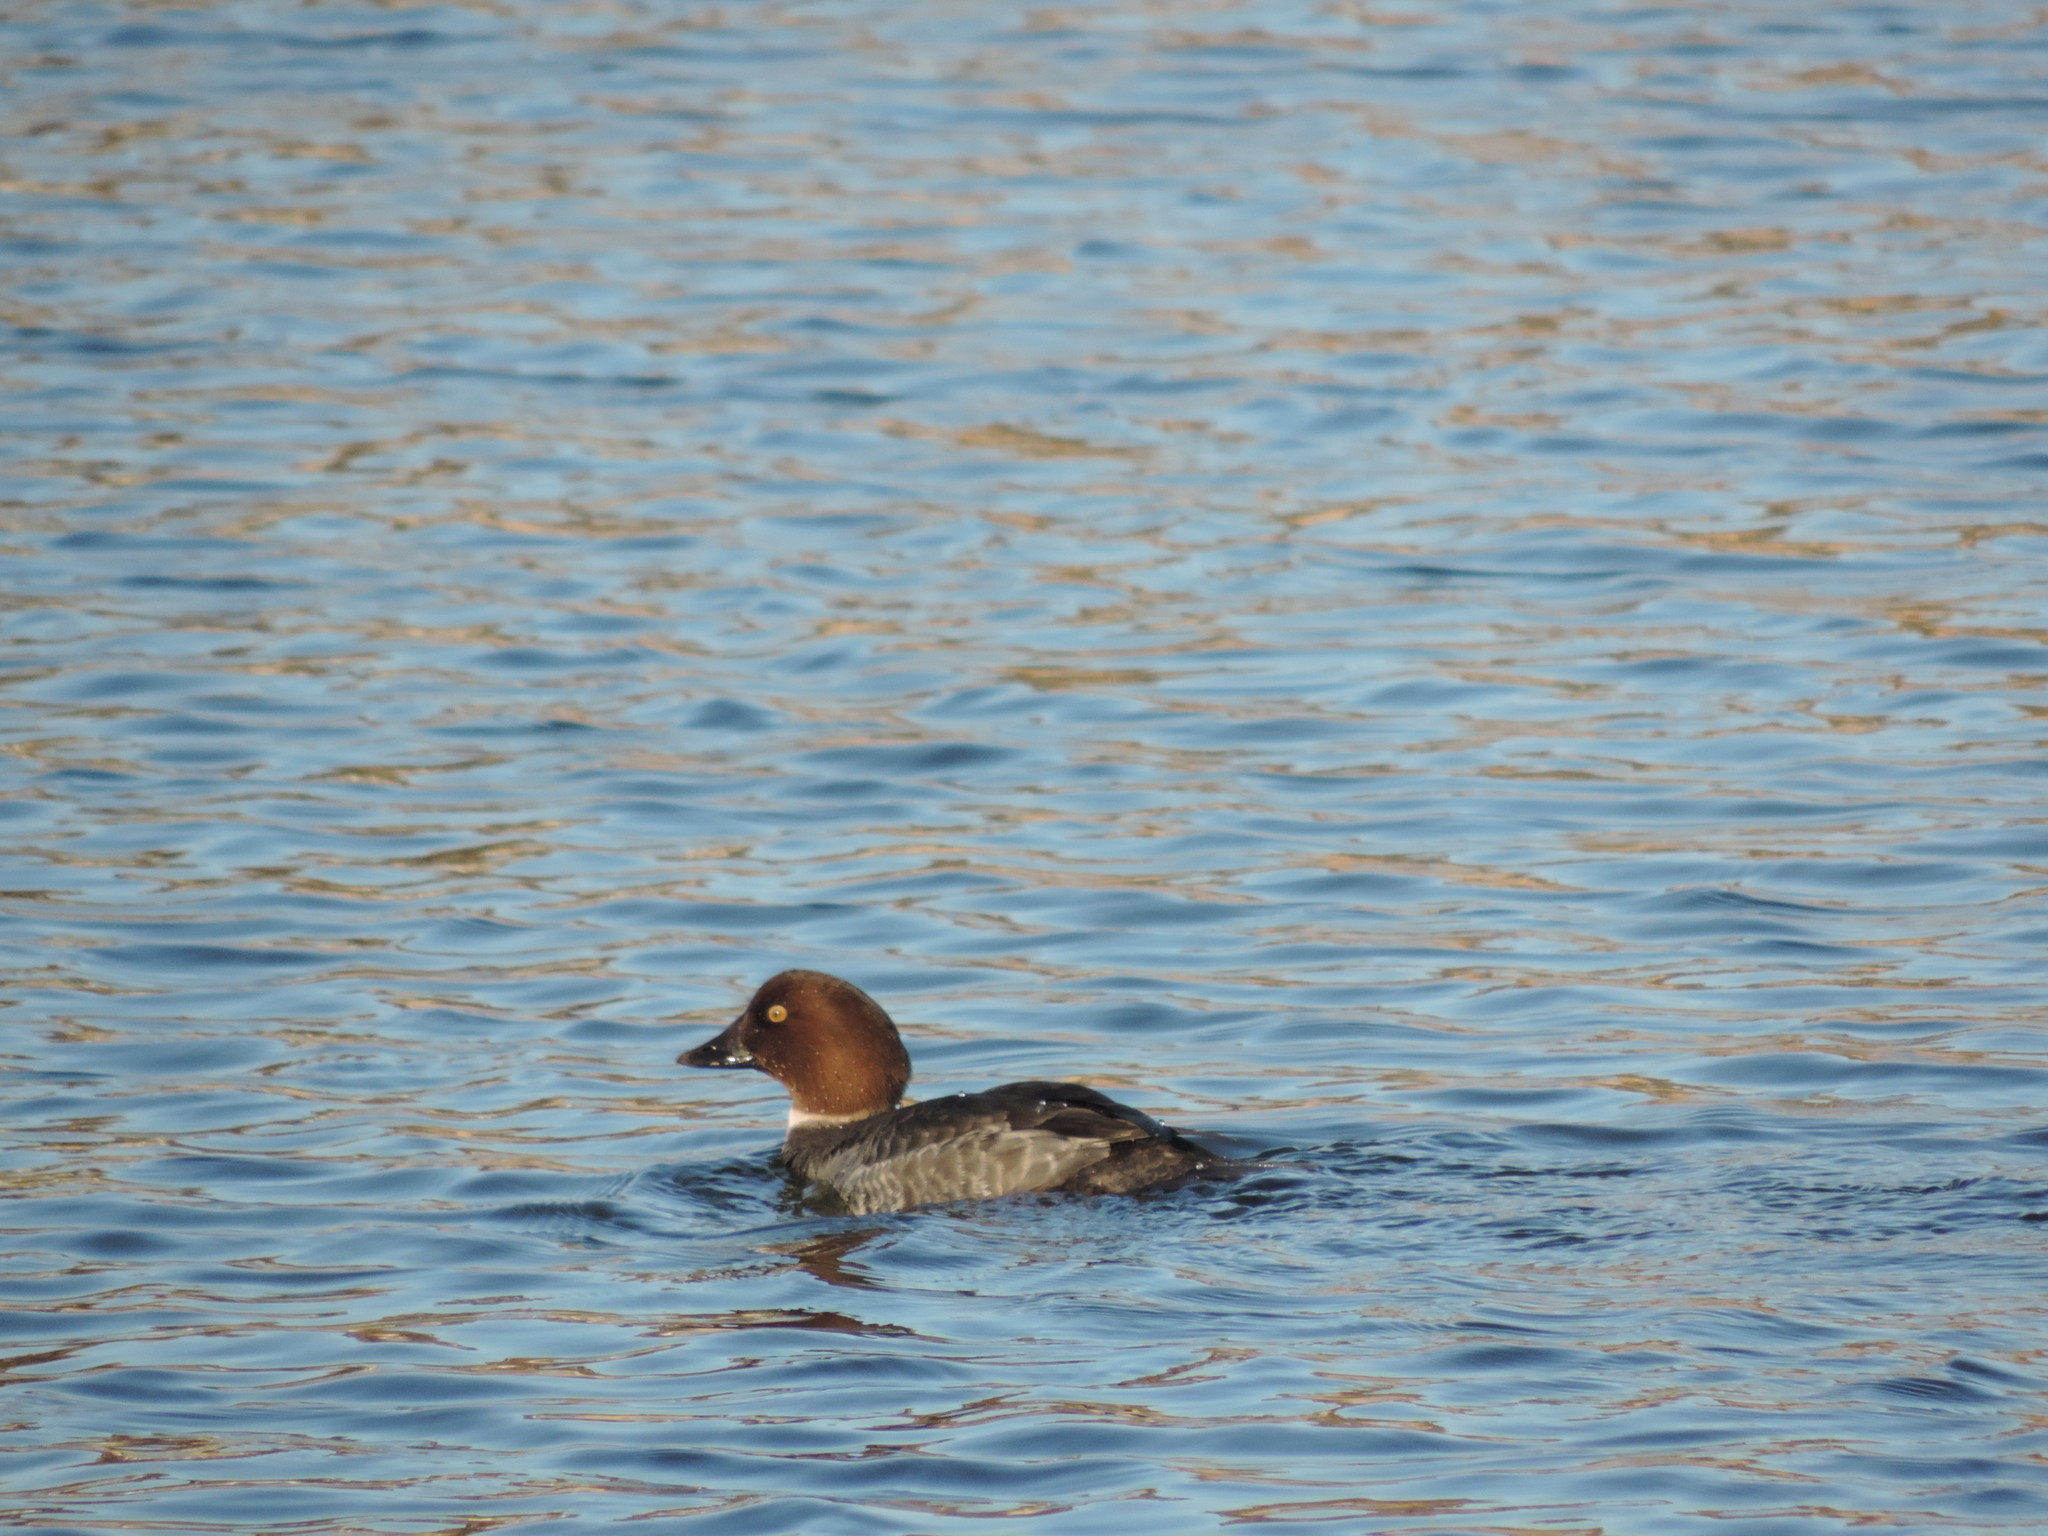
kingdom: Animalia
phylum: Chordata
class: Aves
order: Anseriformes
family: Anatidae
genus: Bucephala
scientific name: Bucephala clangula
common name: Common goldeneye
